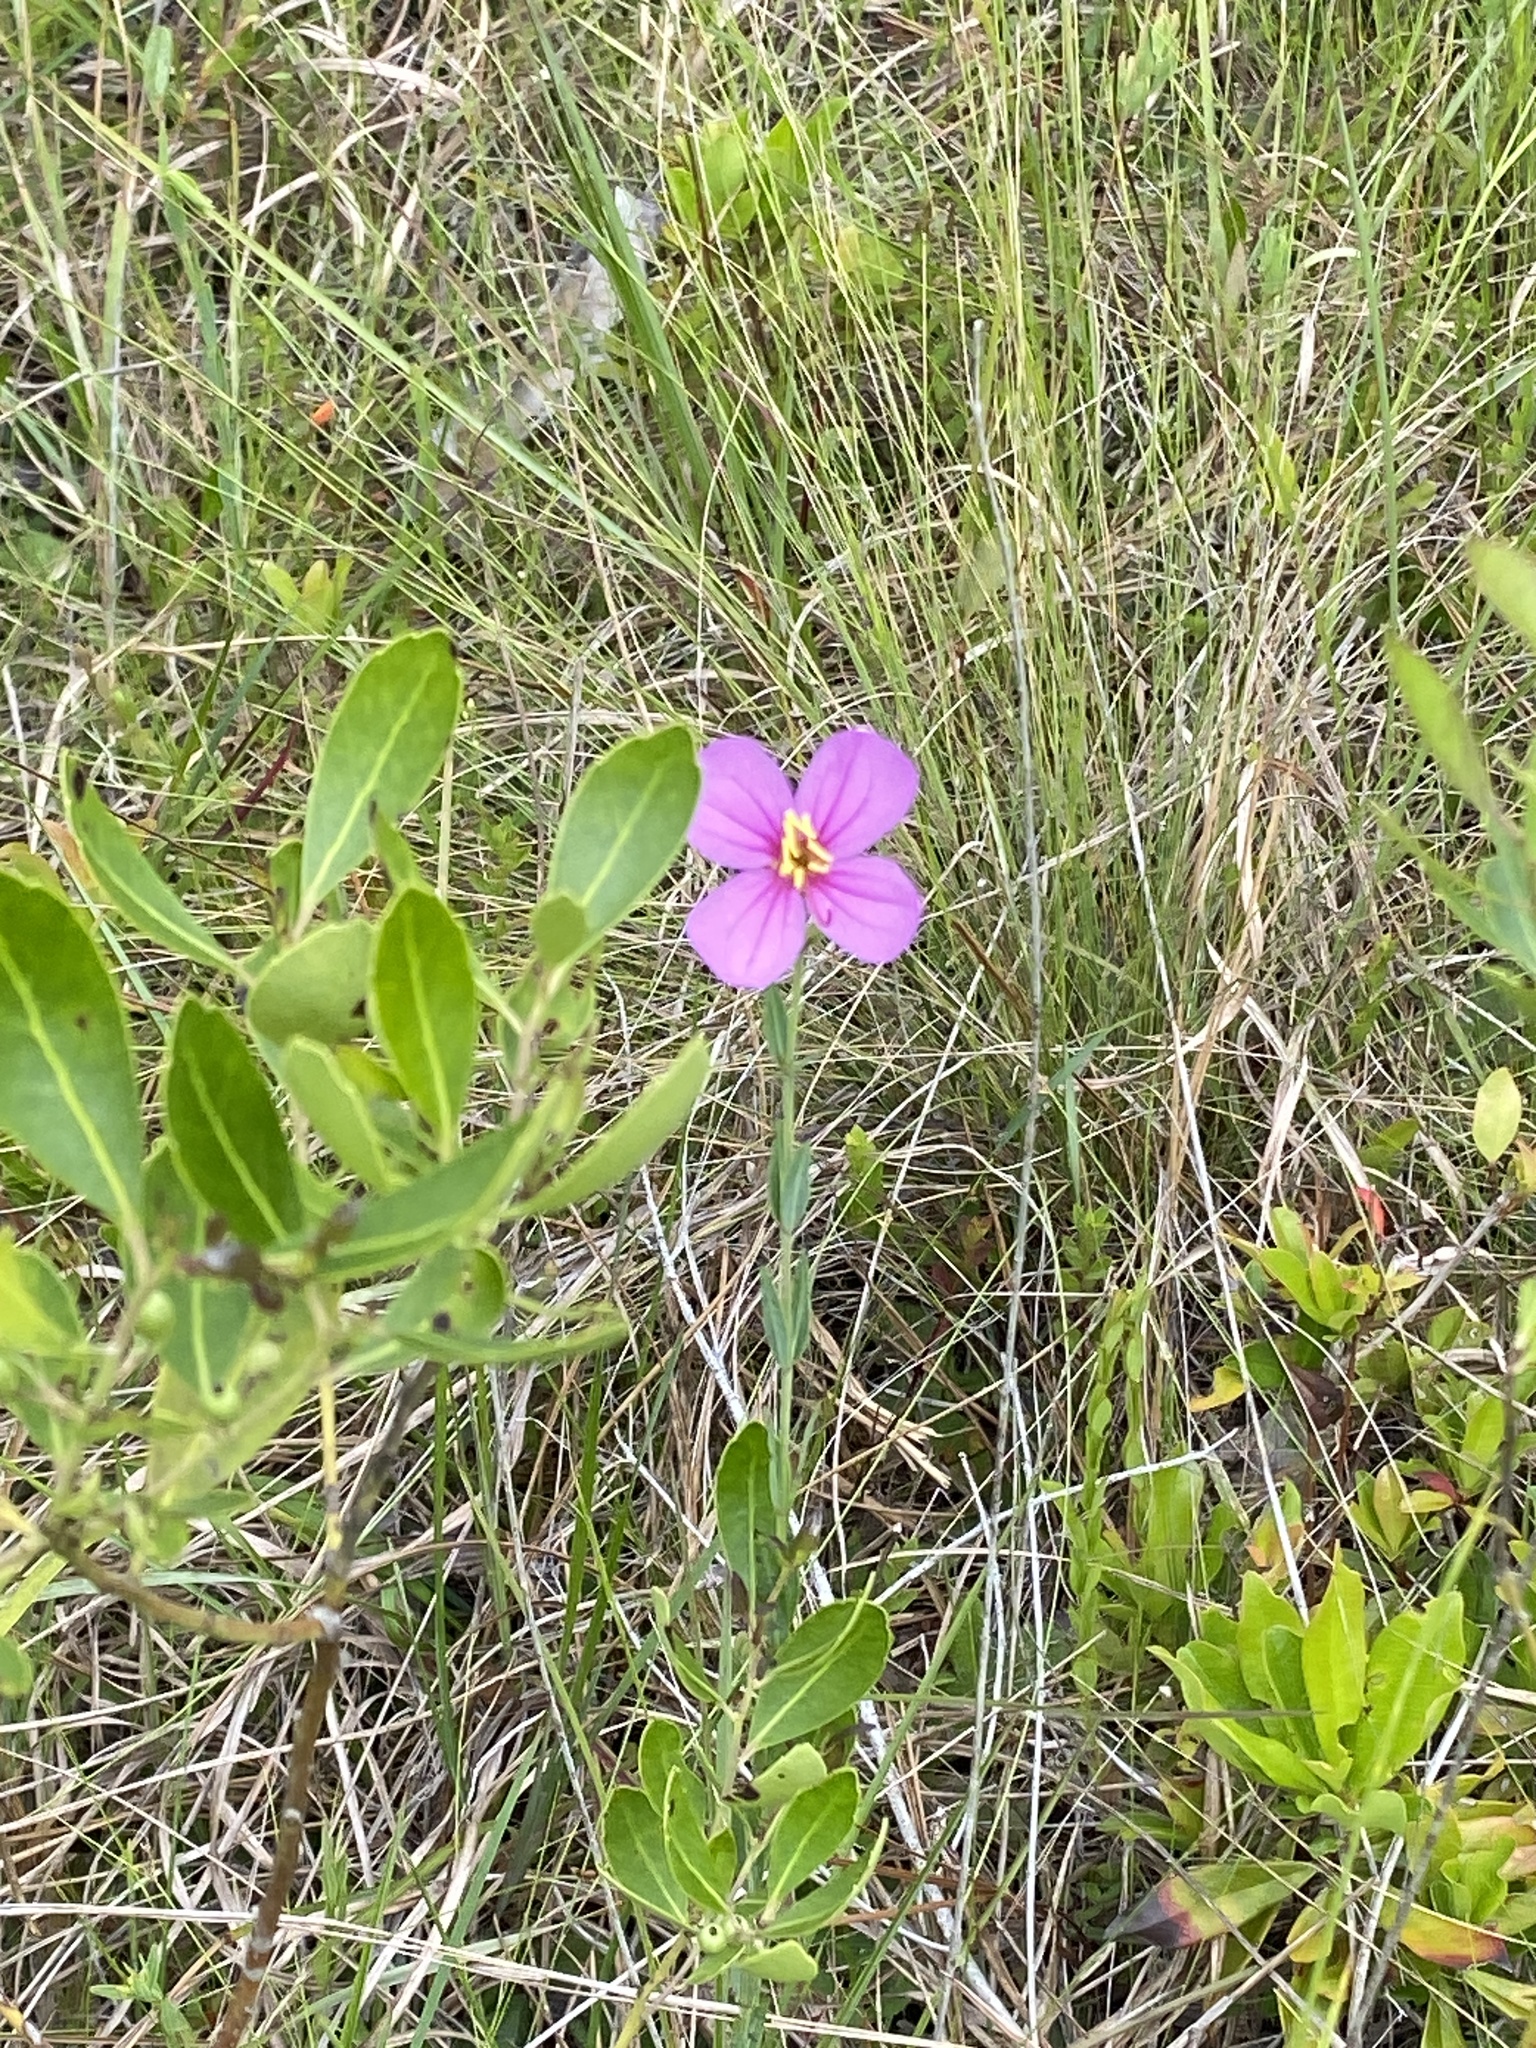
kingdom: Plantae
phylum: Tracheophyta
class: Magnoliopsida
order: Myrtales
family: Melastomataceae
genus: Rhexia
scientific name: Rhexia alifanus
